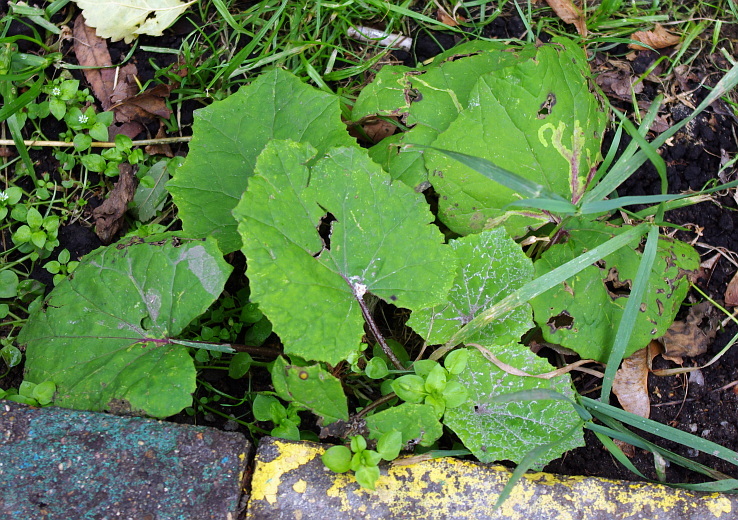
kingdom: Plantae
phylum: Tracheophyta
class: Magnoliopsida
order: Asterales
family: Asteraceae
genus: Tussilago
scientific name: Tussilago farfara
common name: Coltsfoot
